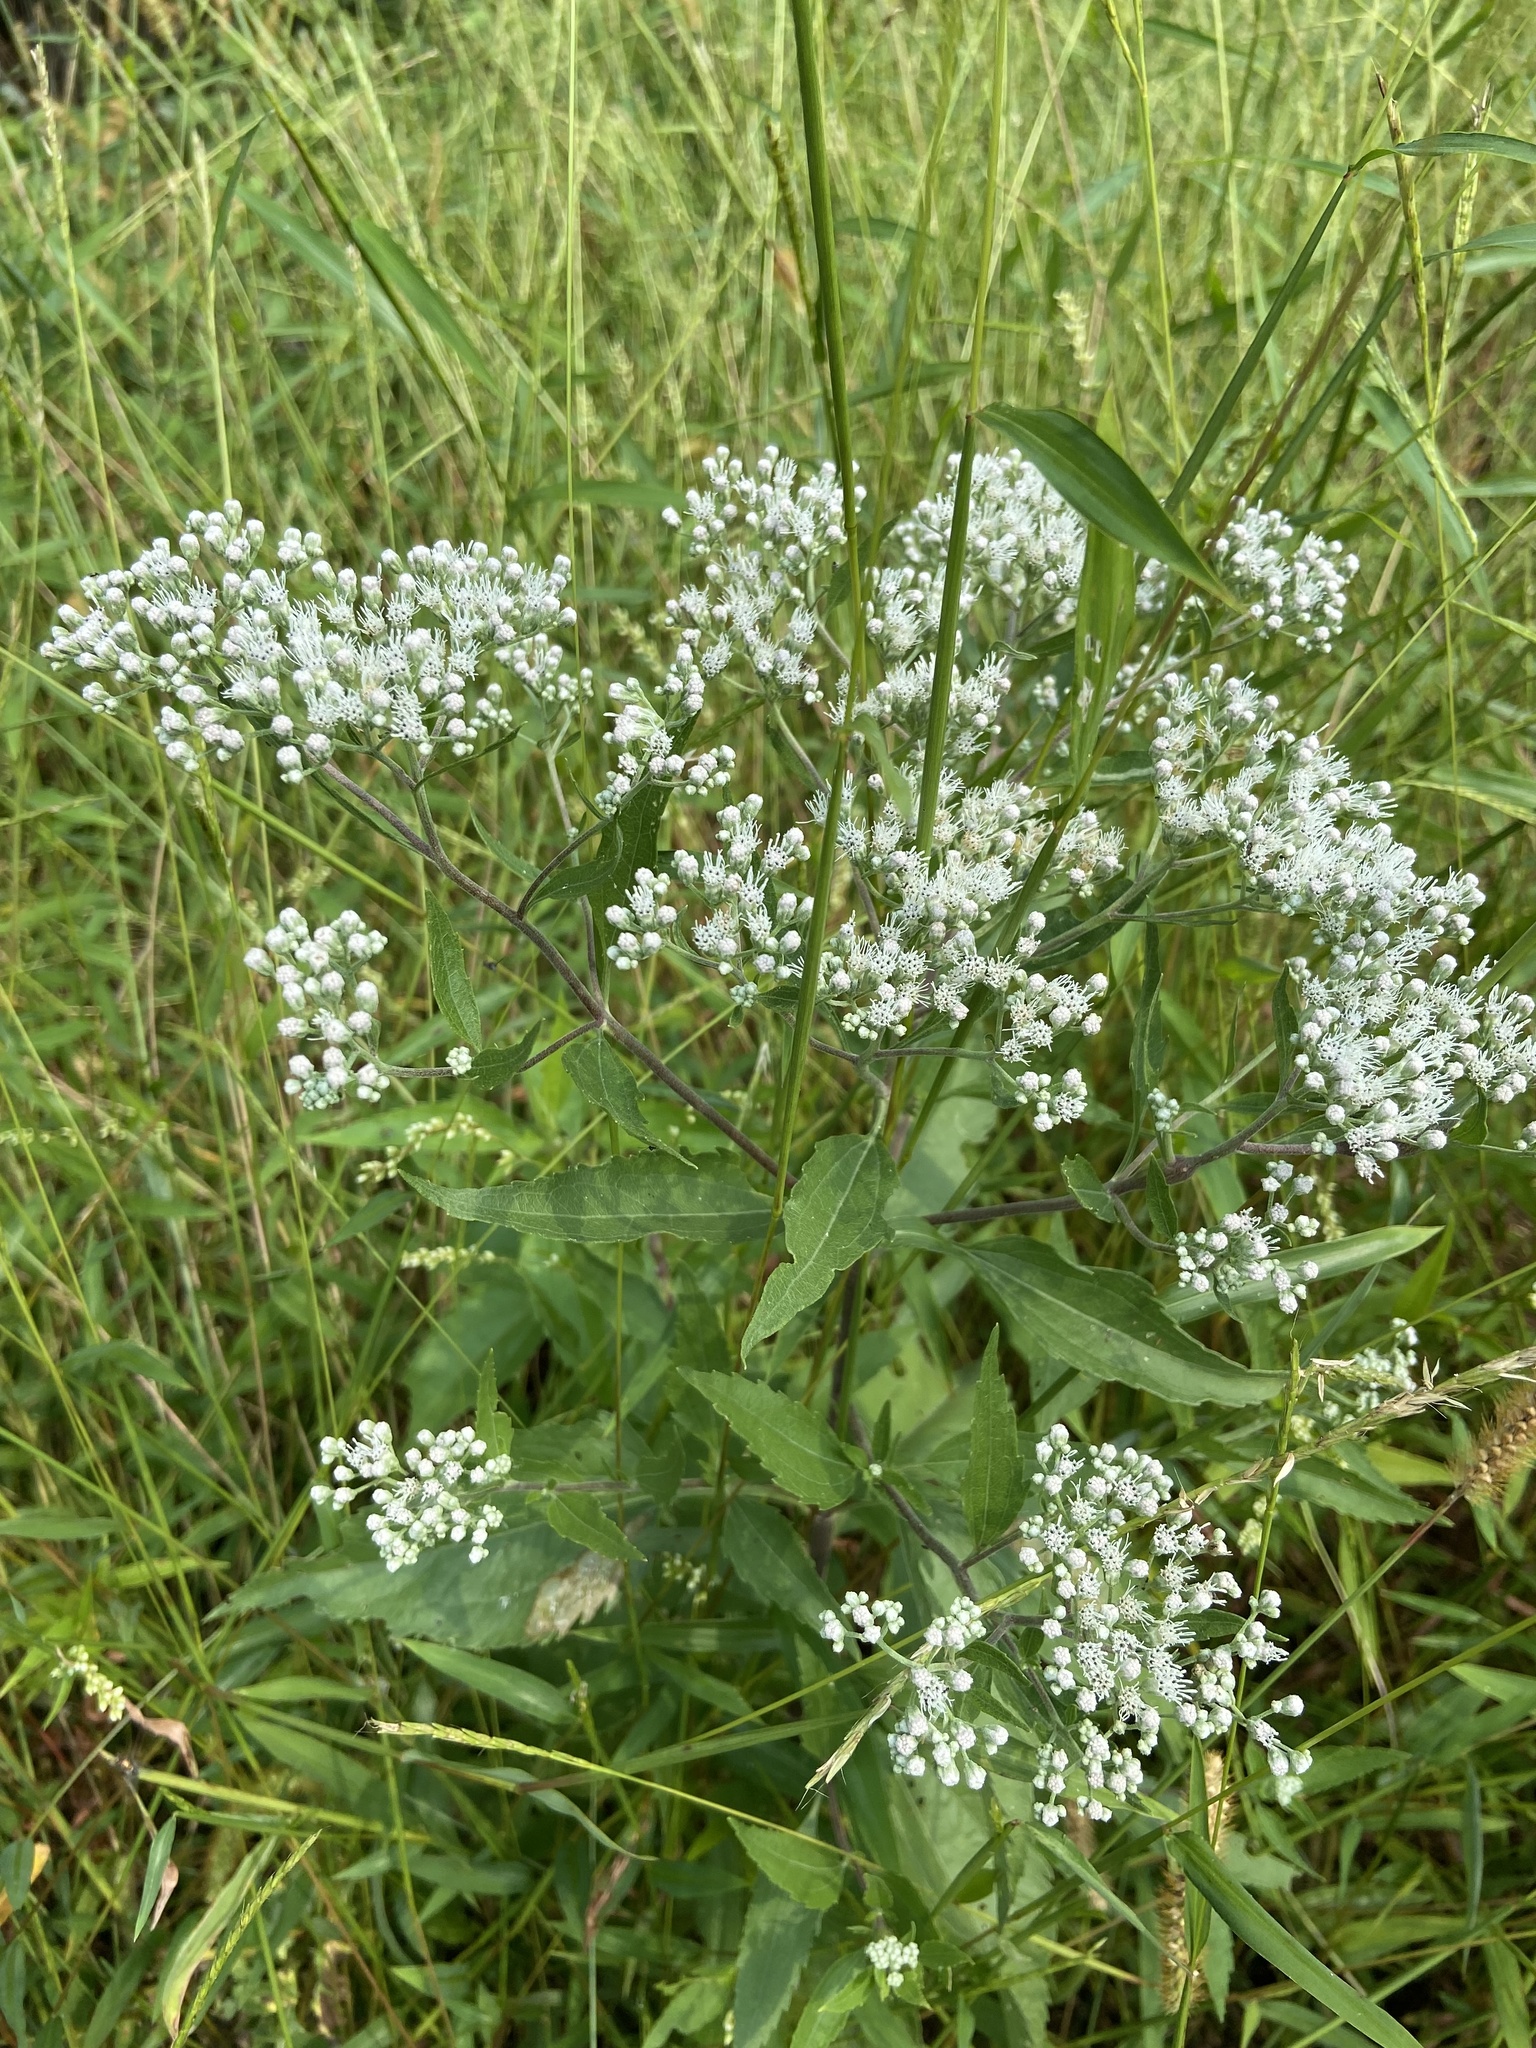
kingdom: Plantae
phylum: Tracheophyta
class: Magnoliopsida
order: Asterales
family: Asteraceae
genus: Eupatorium
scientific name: Eupatorium serotinum
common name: Late boneset
